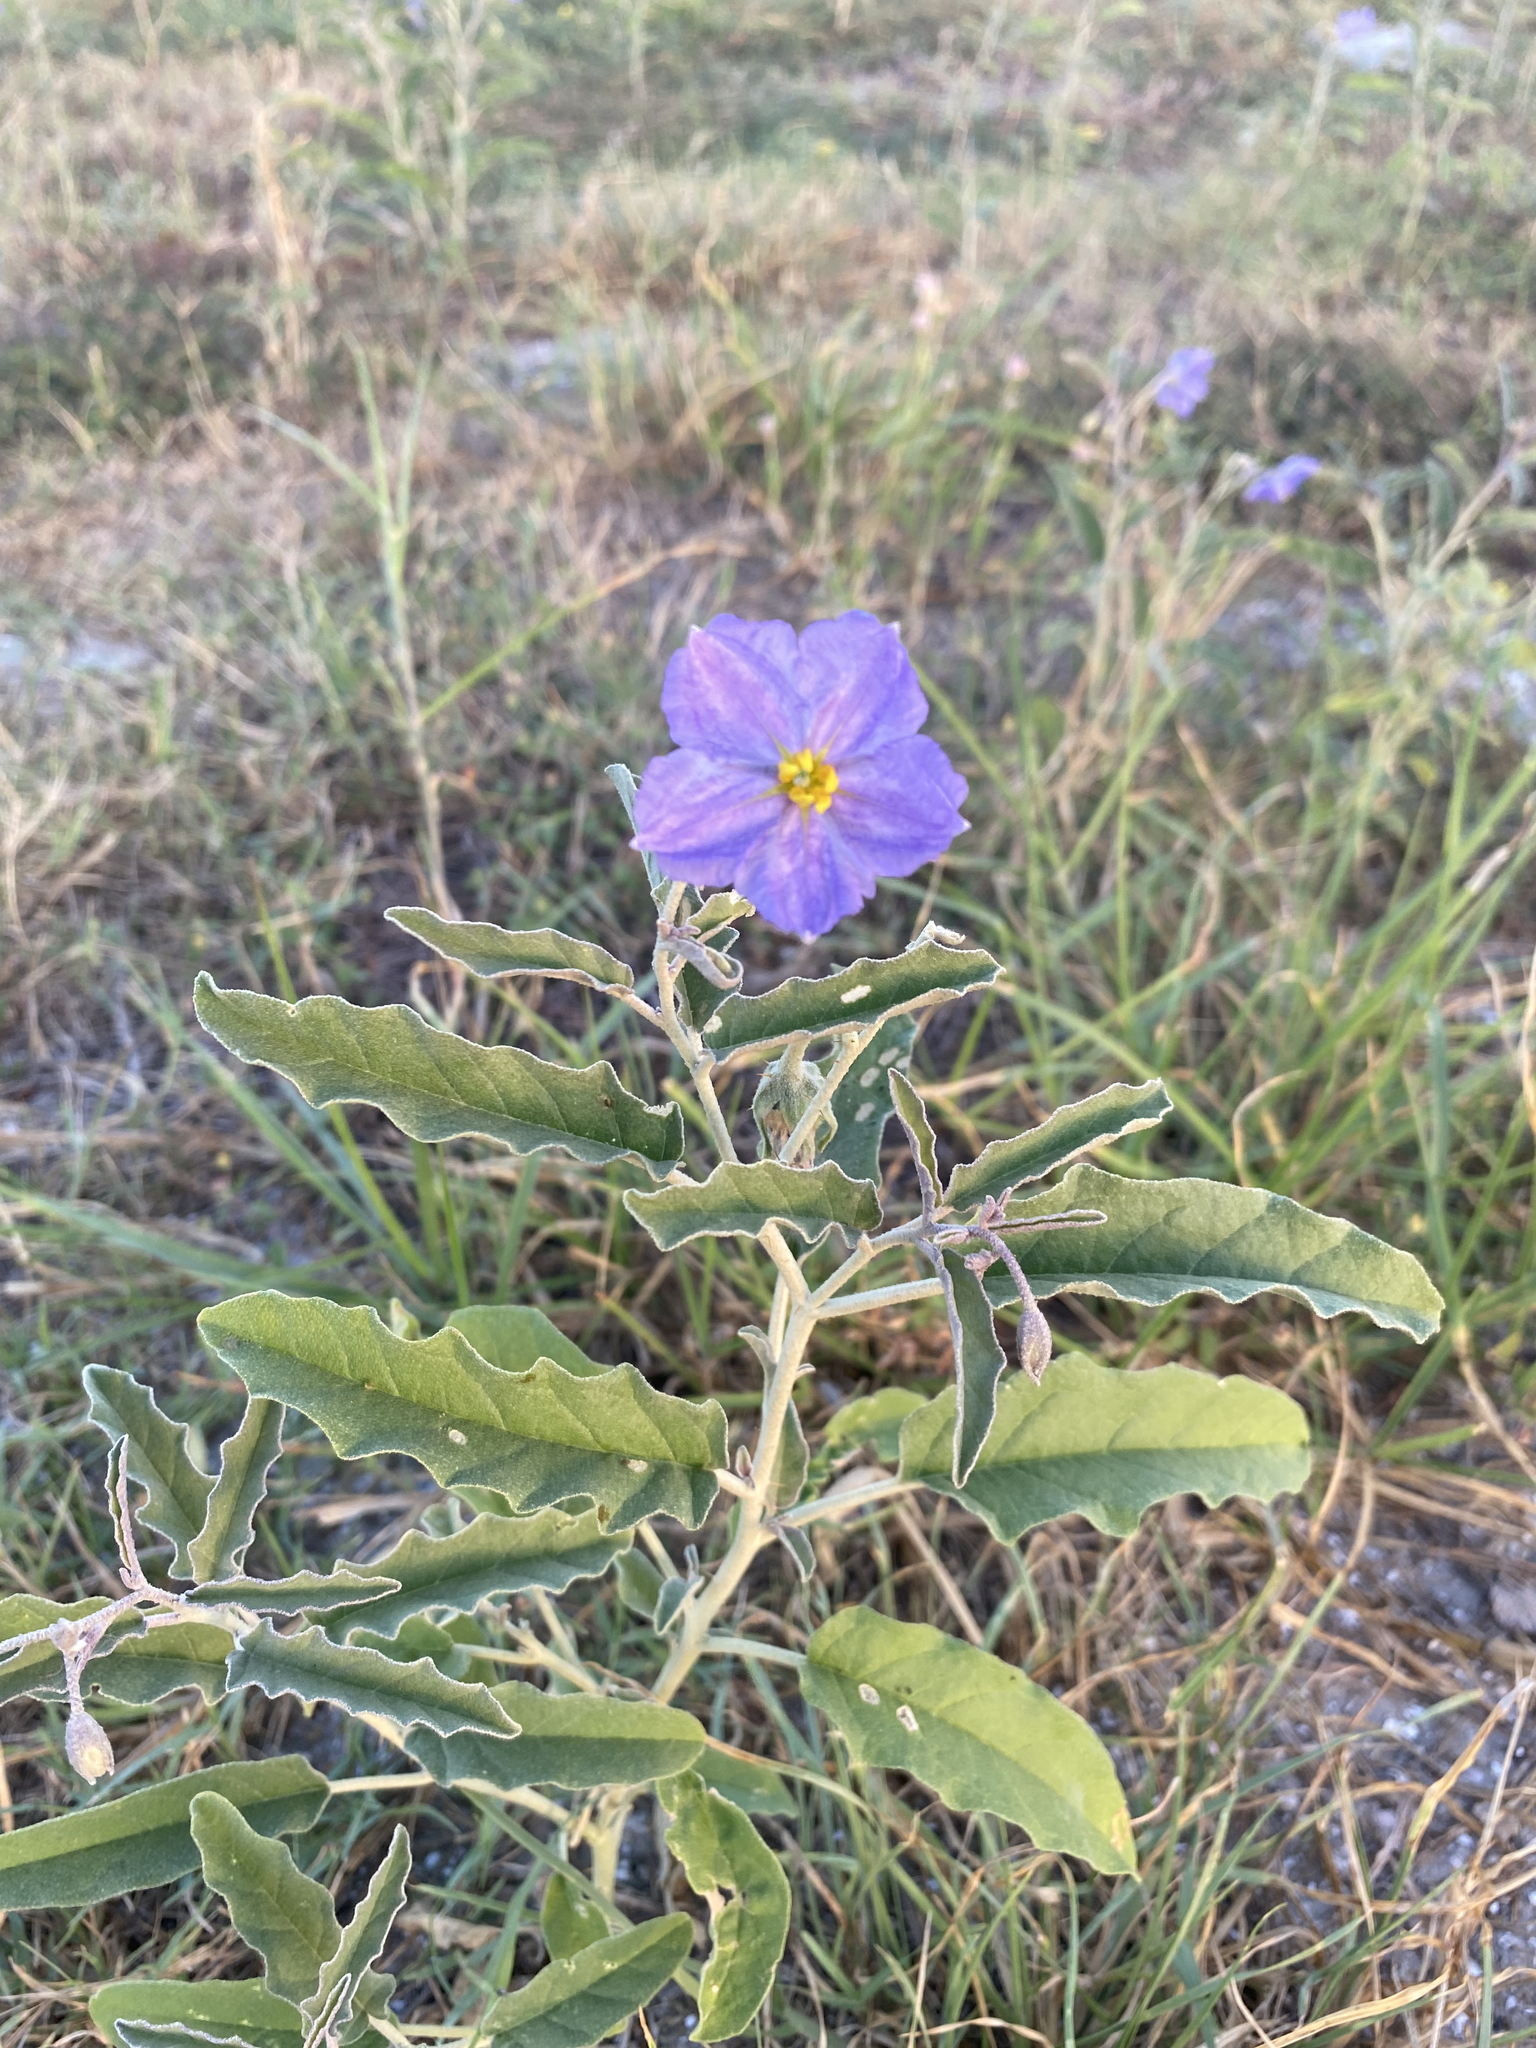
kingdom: Plantae
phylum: Tracheophyta
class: Magnoliopsida
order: Solanales
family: Solanaceae
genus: Solanum
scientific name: Solanum elaeagnifolium
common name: Silverleaf nightshade
